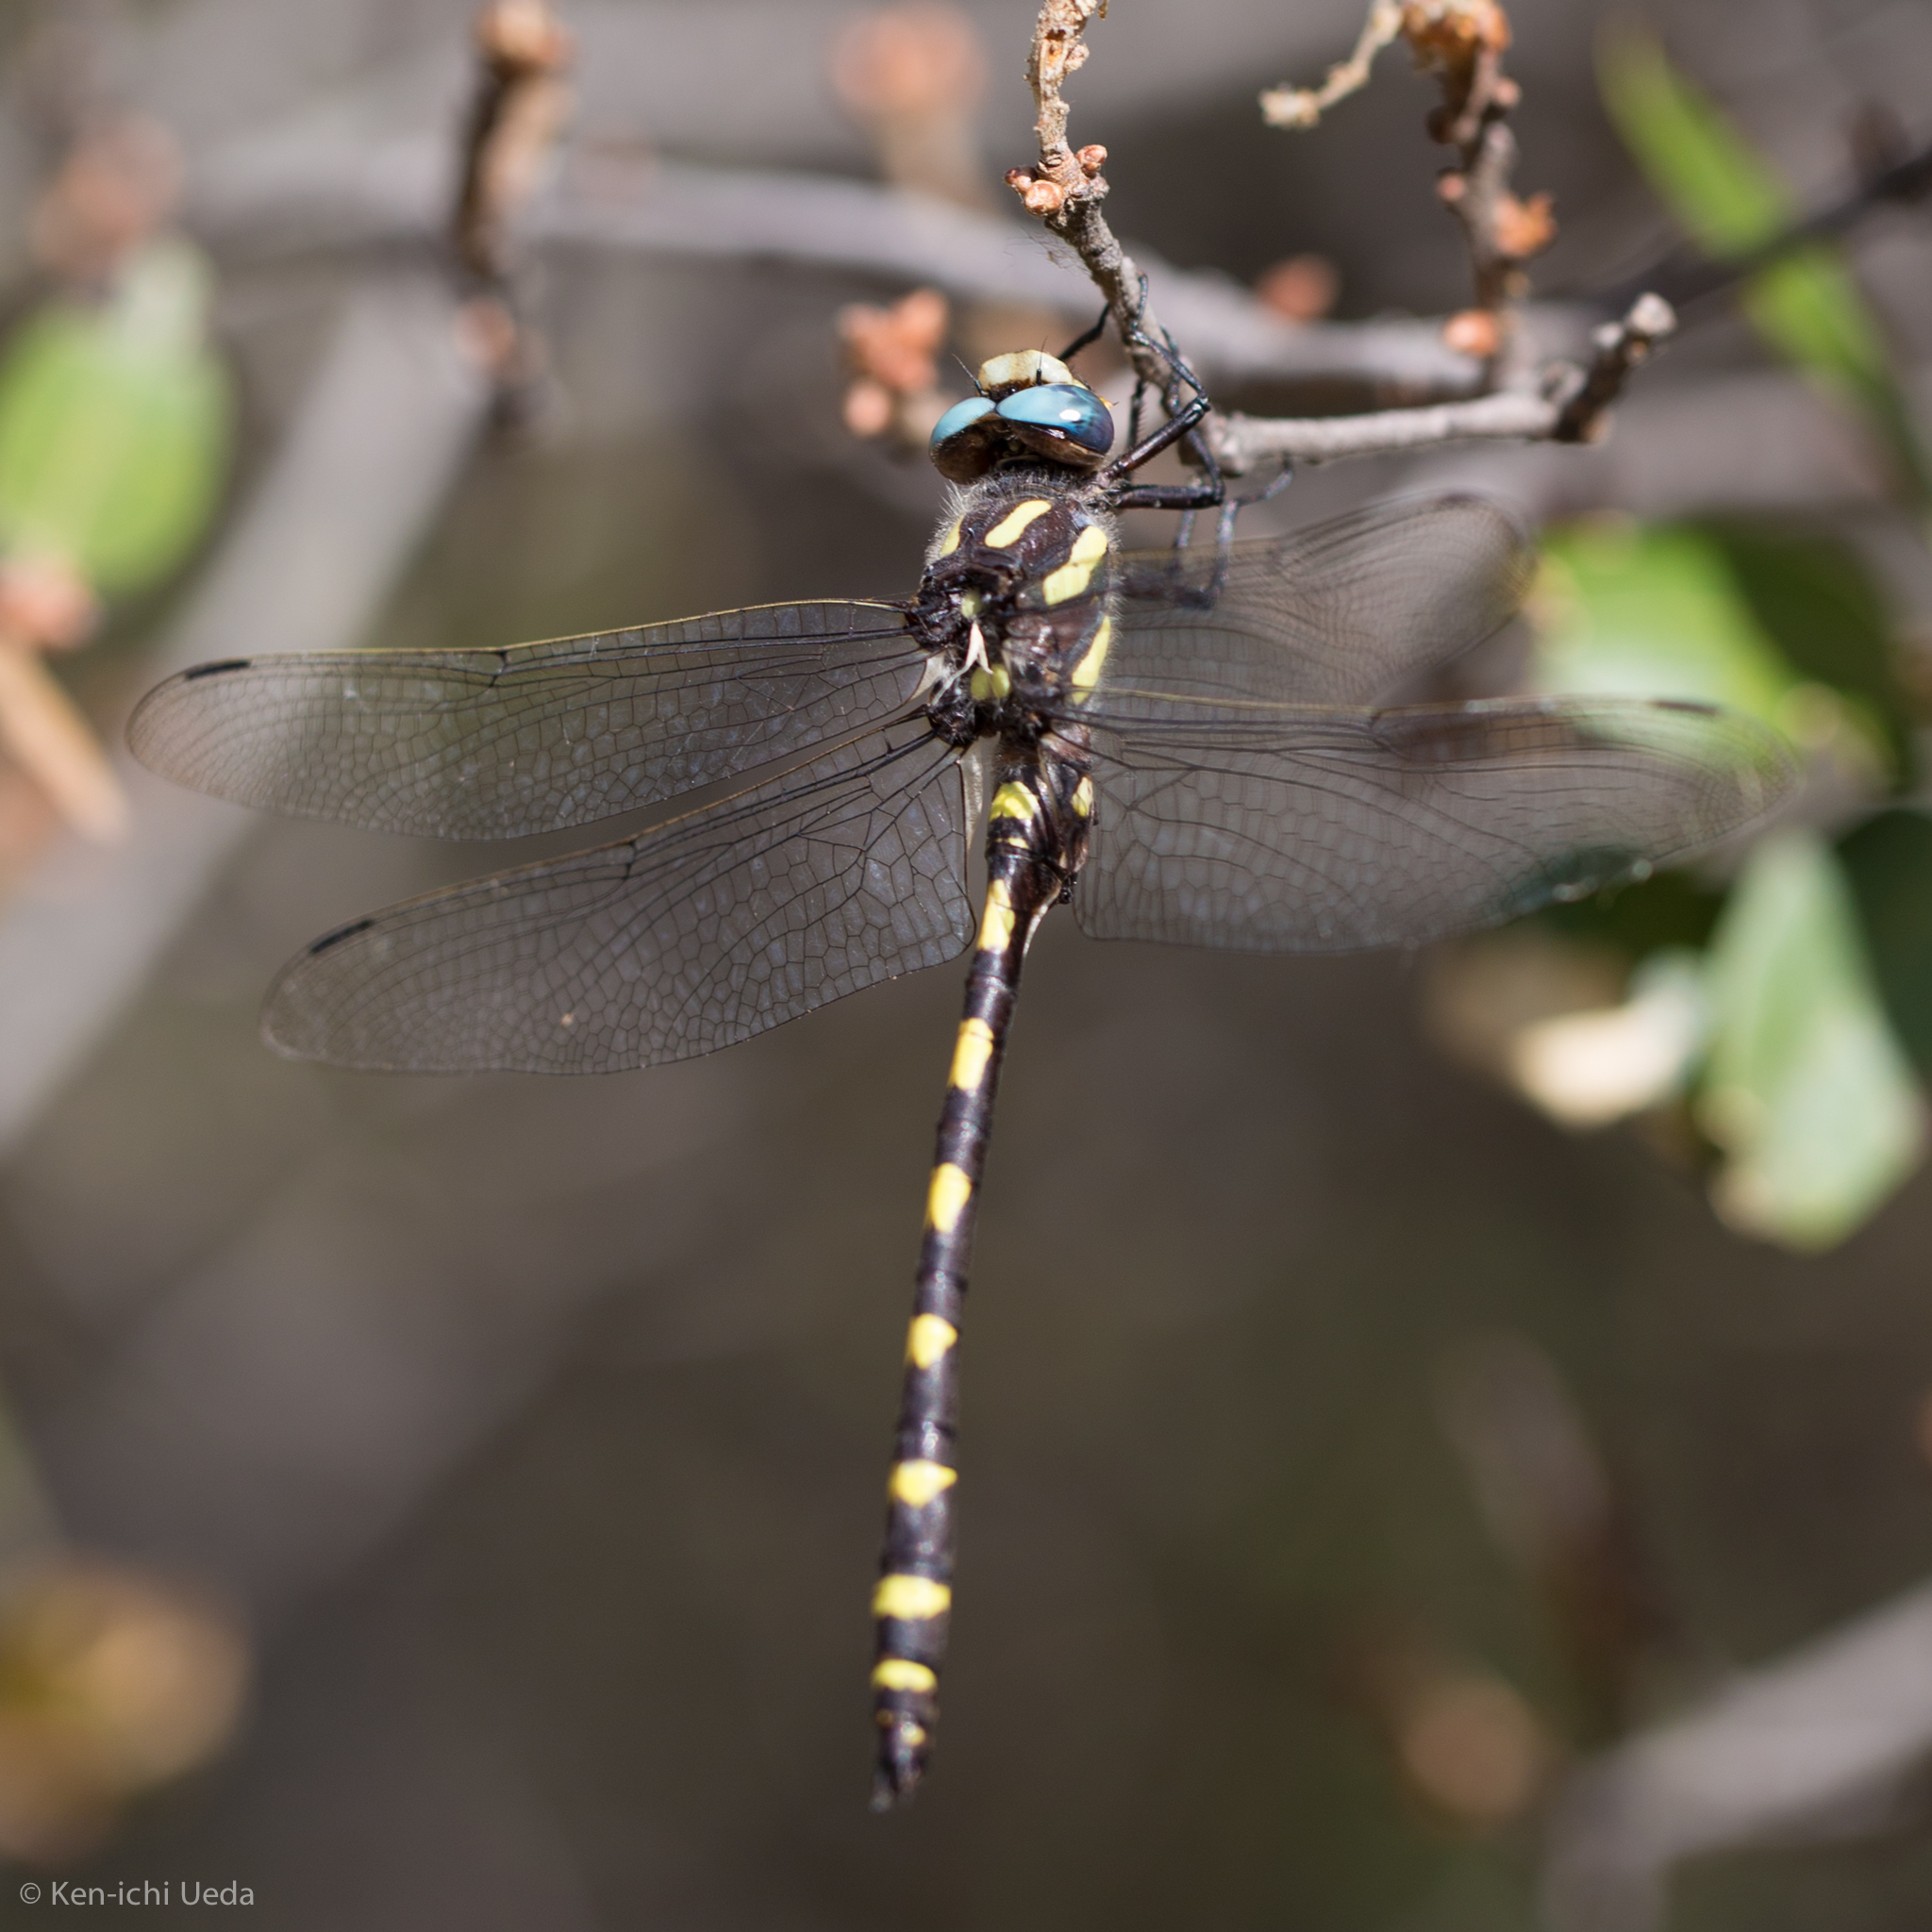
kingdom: Animalia
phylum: Arthropoda
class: Insecta
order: Odonata
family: Cordulegastridae
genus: Cordulegaster
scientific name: Cordulegaster dorsalis
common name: Pacific spiketail
